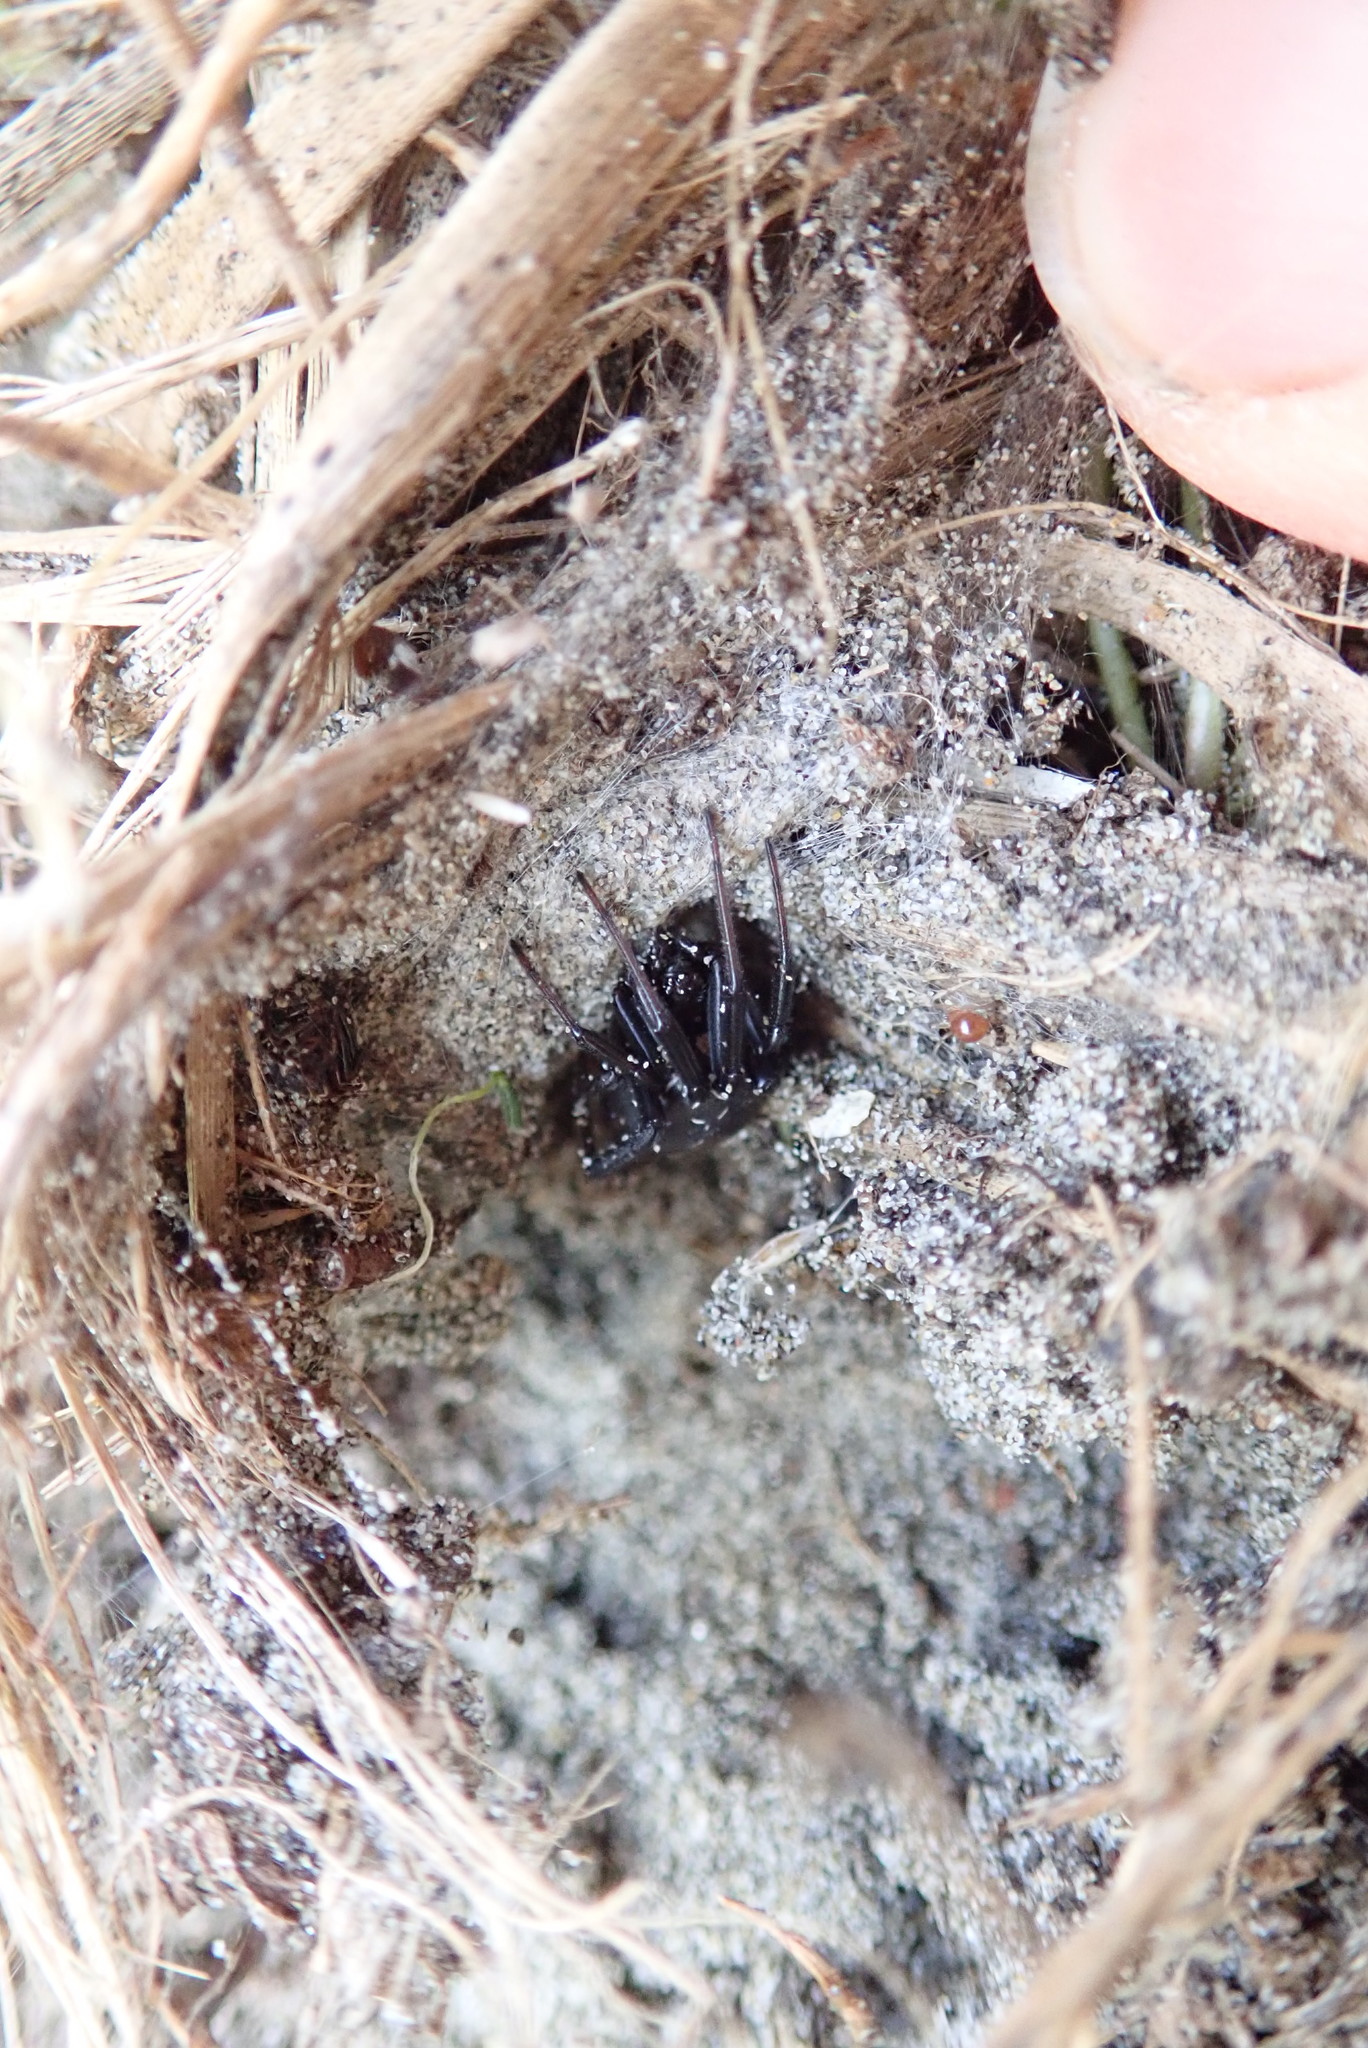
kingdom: Animalia
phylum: Arthropoda
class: Arachnida
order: Araneae
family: Theridiidae
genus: Latrodectus
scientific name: Latrodectus katipo
